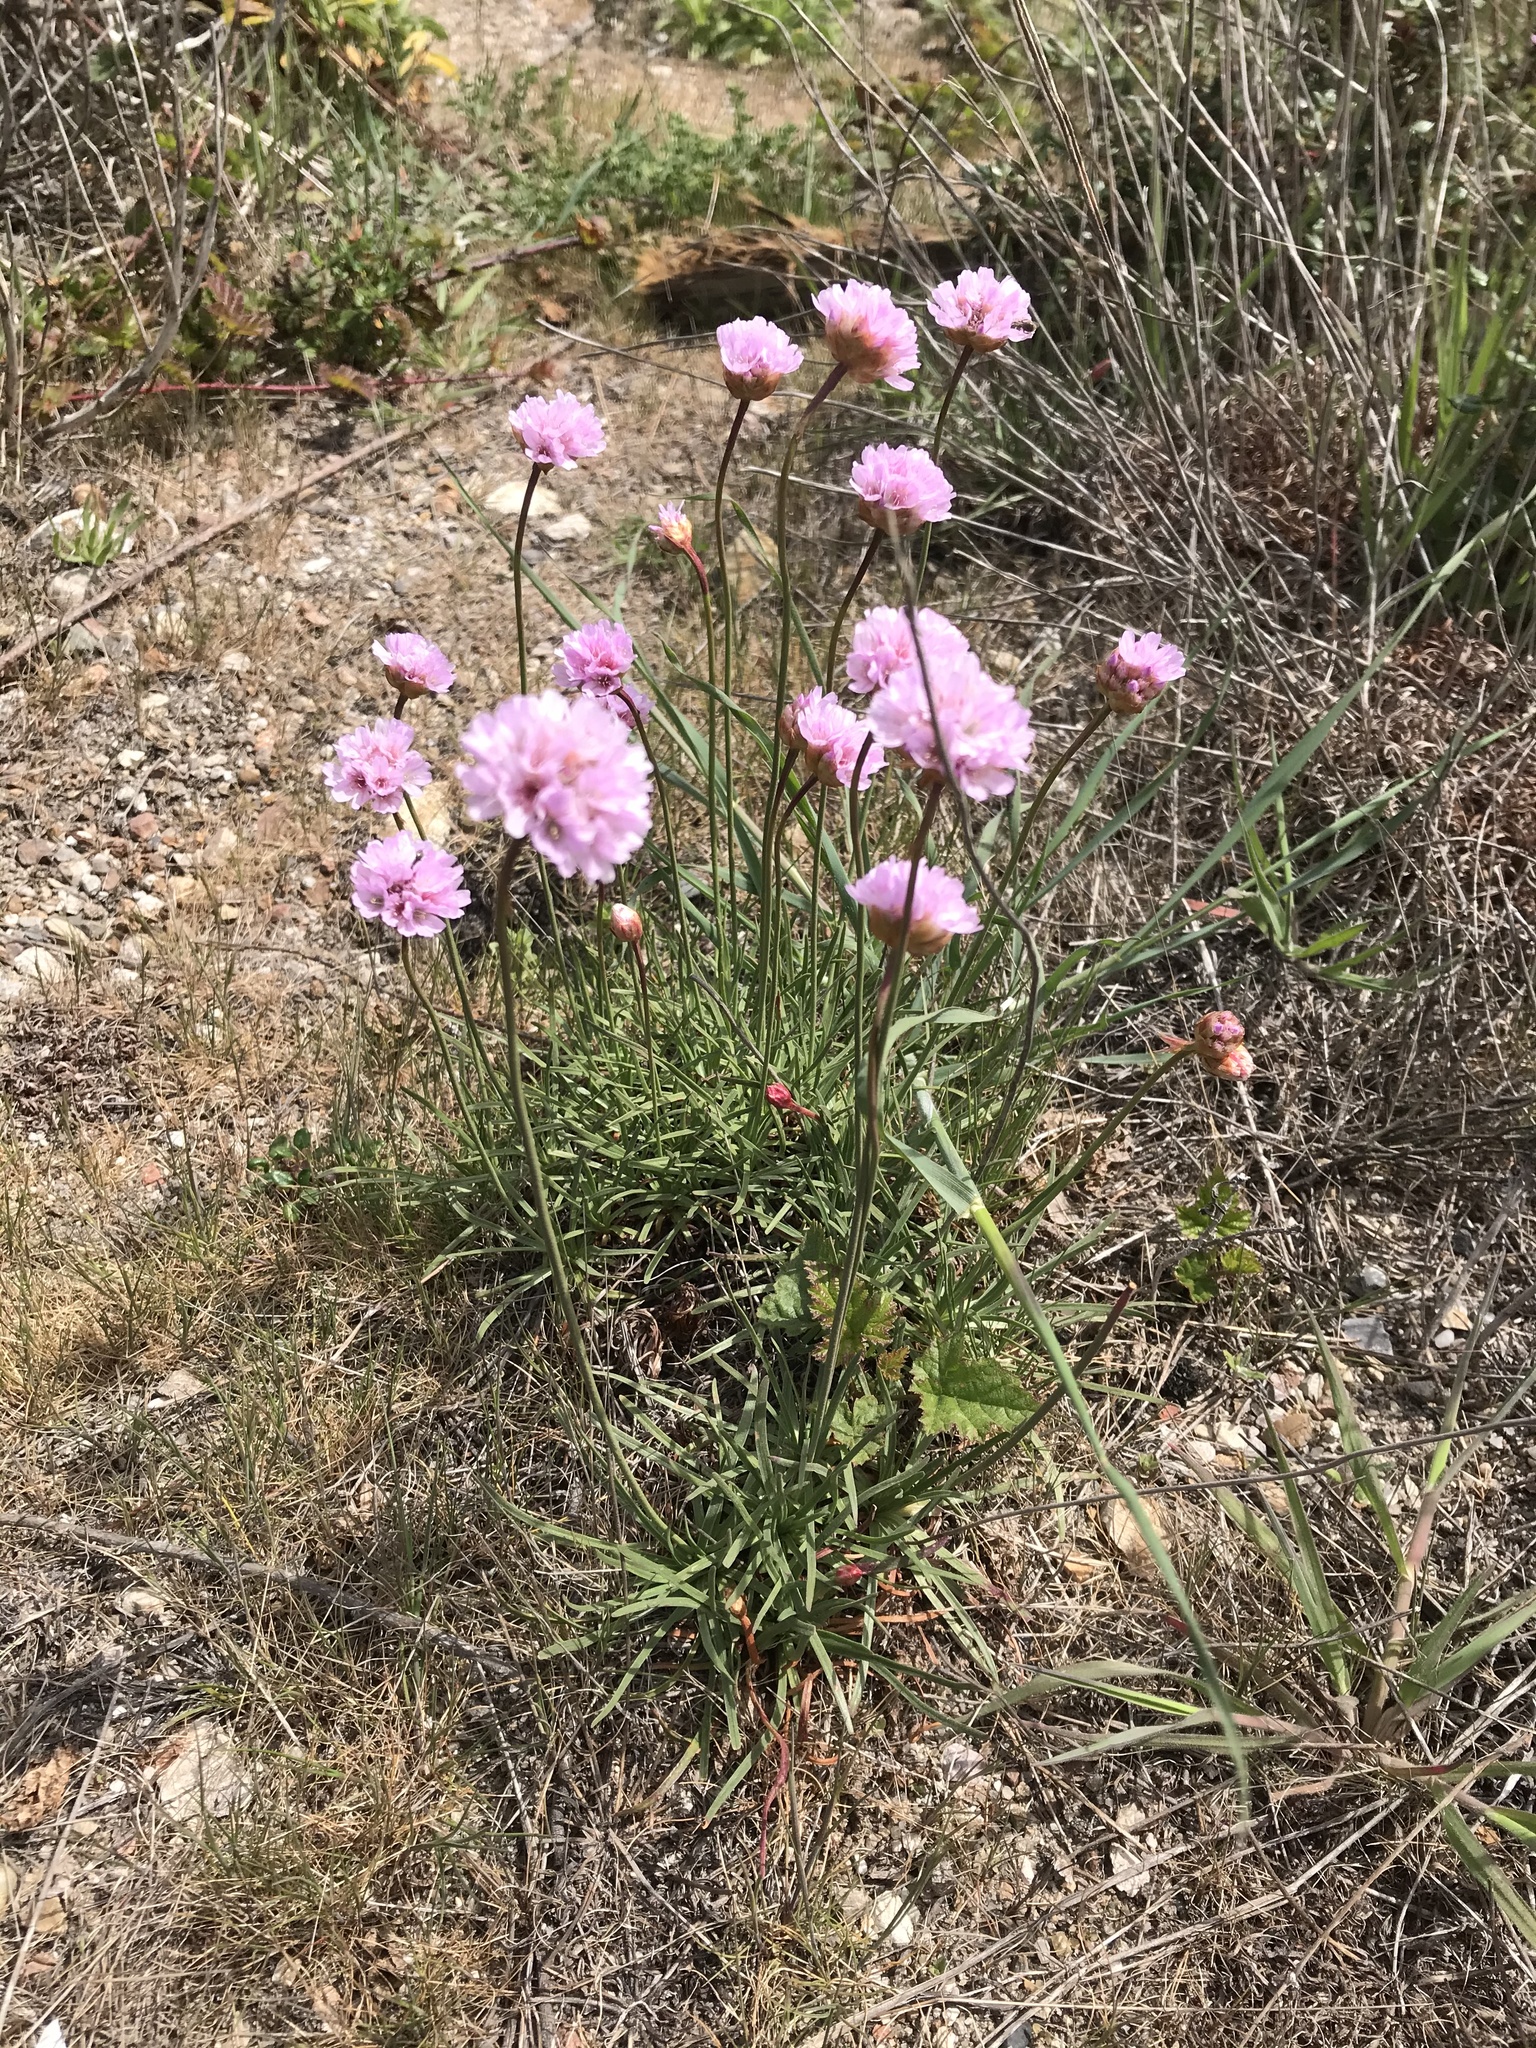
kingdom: Plantae
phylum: Tracheophyta
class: Magnoliopsida
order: Caryophyllales
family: Plumbaginaceae
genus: Armeria
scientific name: Armeria maritima
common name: Thrift
